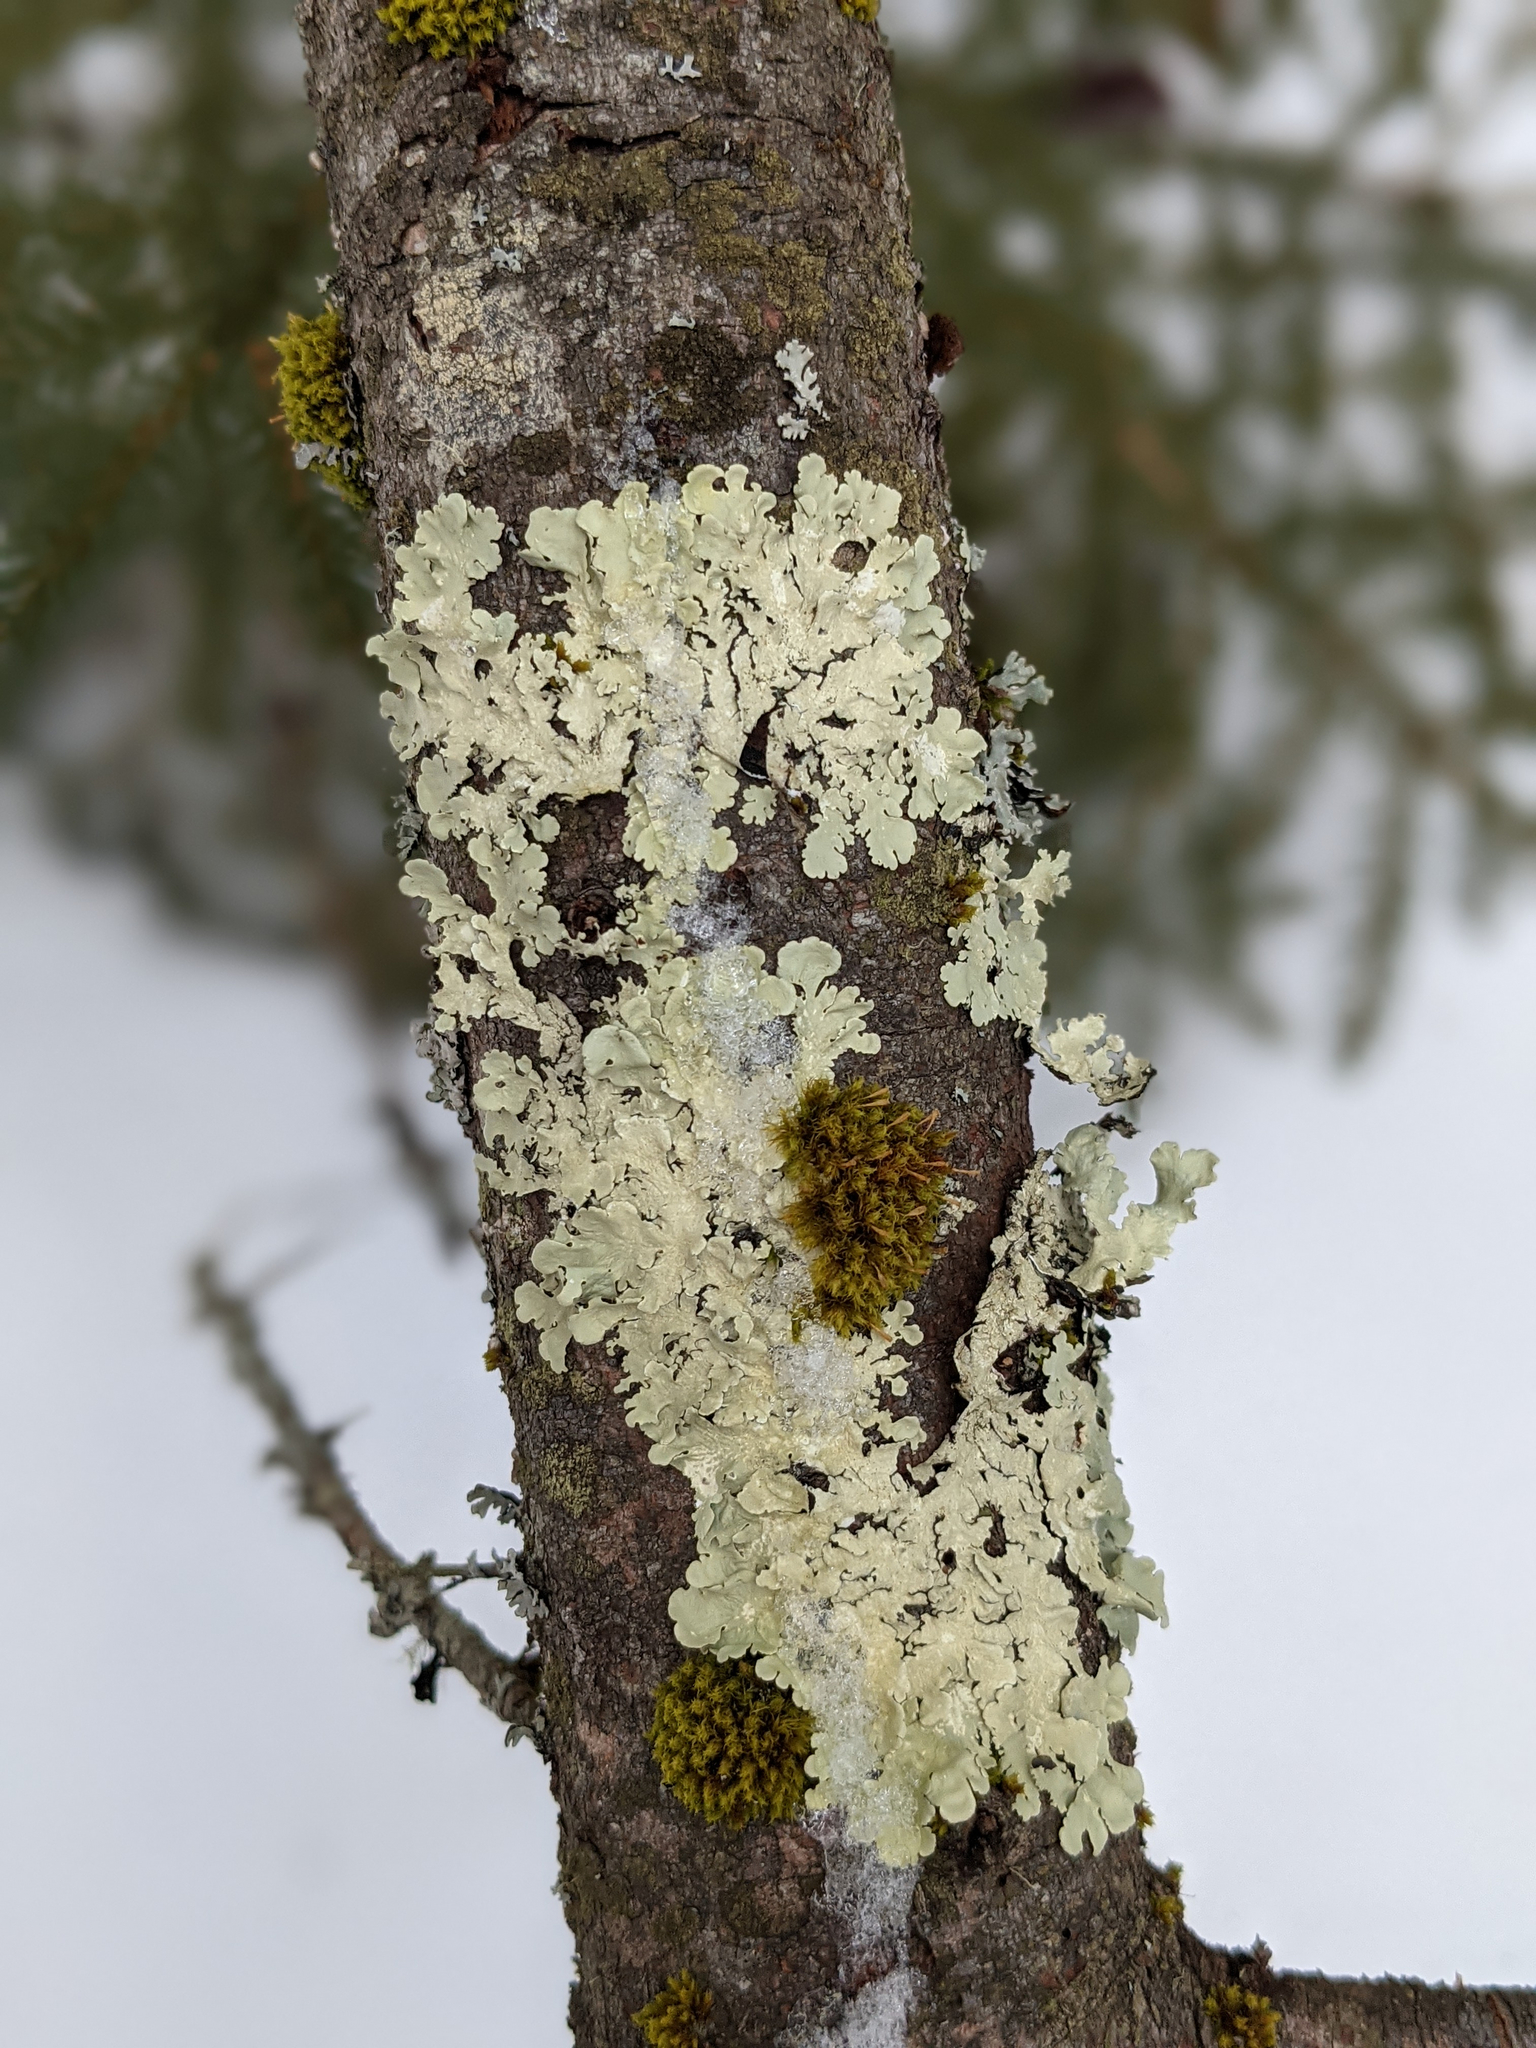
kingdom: Plantae
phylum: Bryophyta
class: Bryopsida
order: Orthotrichales
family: Orthotrichaceae
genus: Ulota
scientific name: Ulota crispa
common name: Crisped pincushion moss
